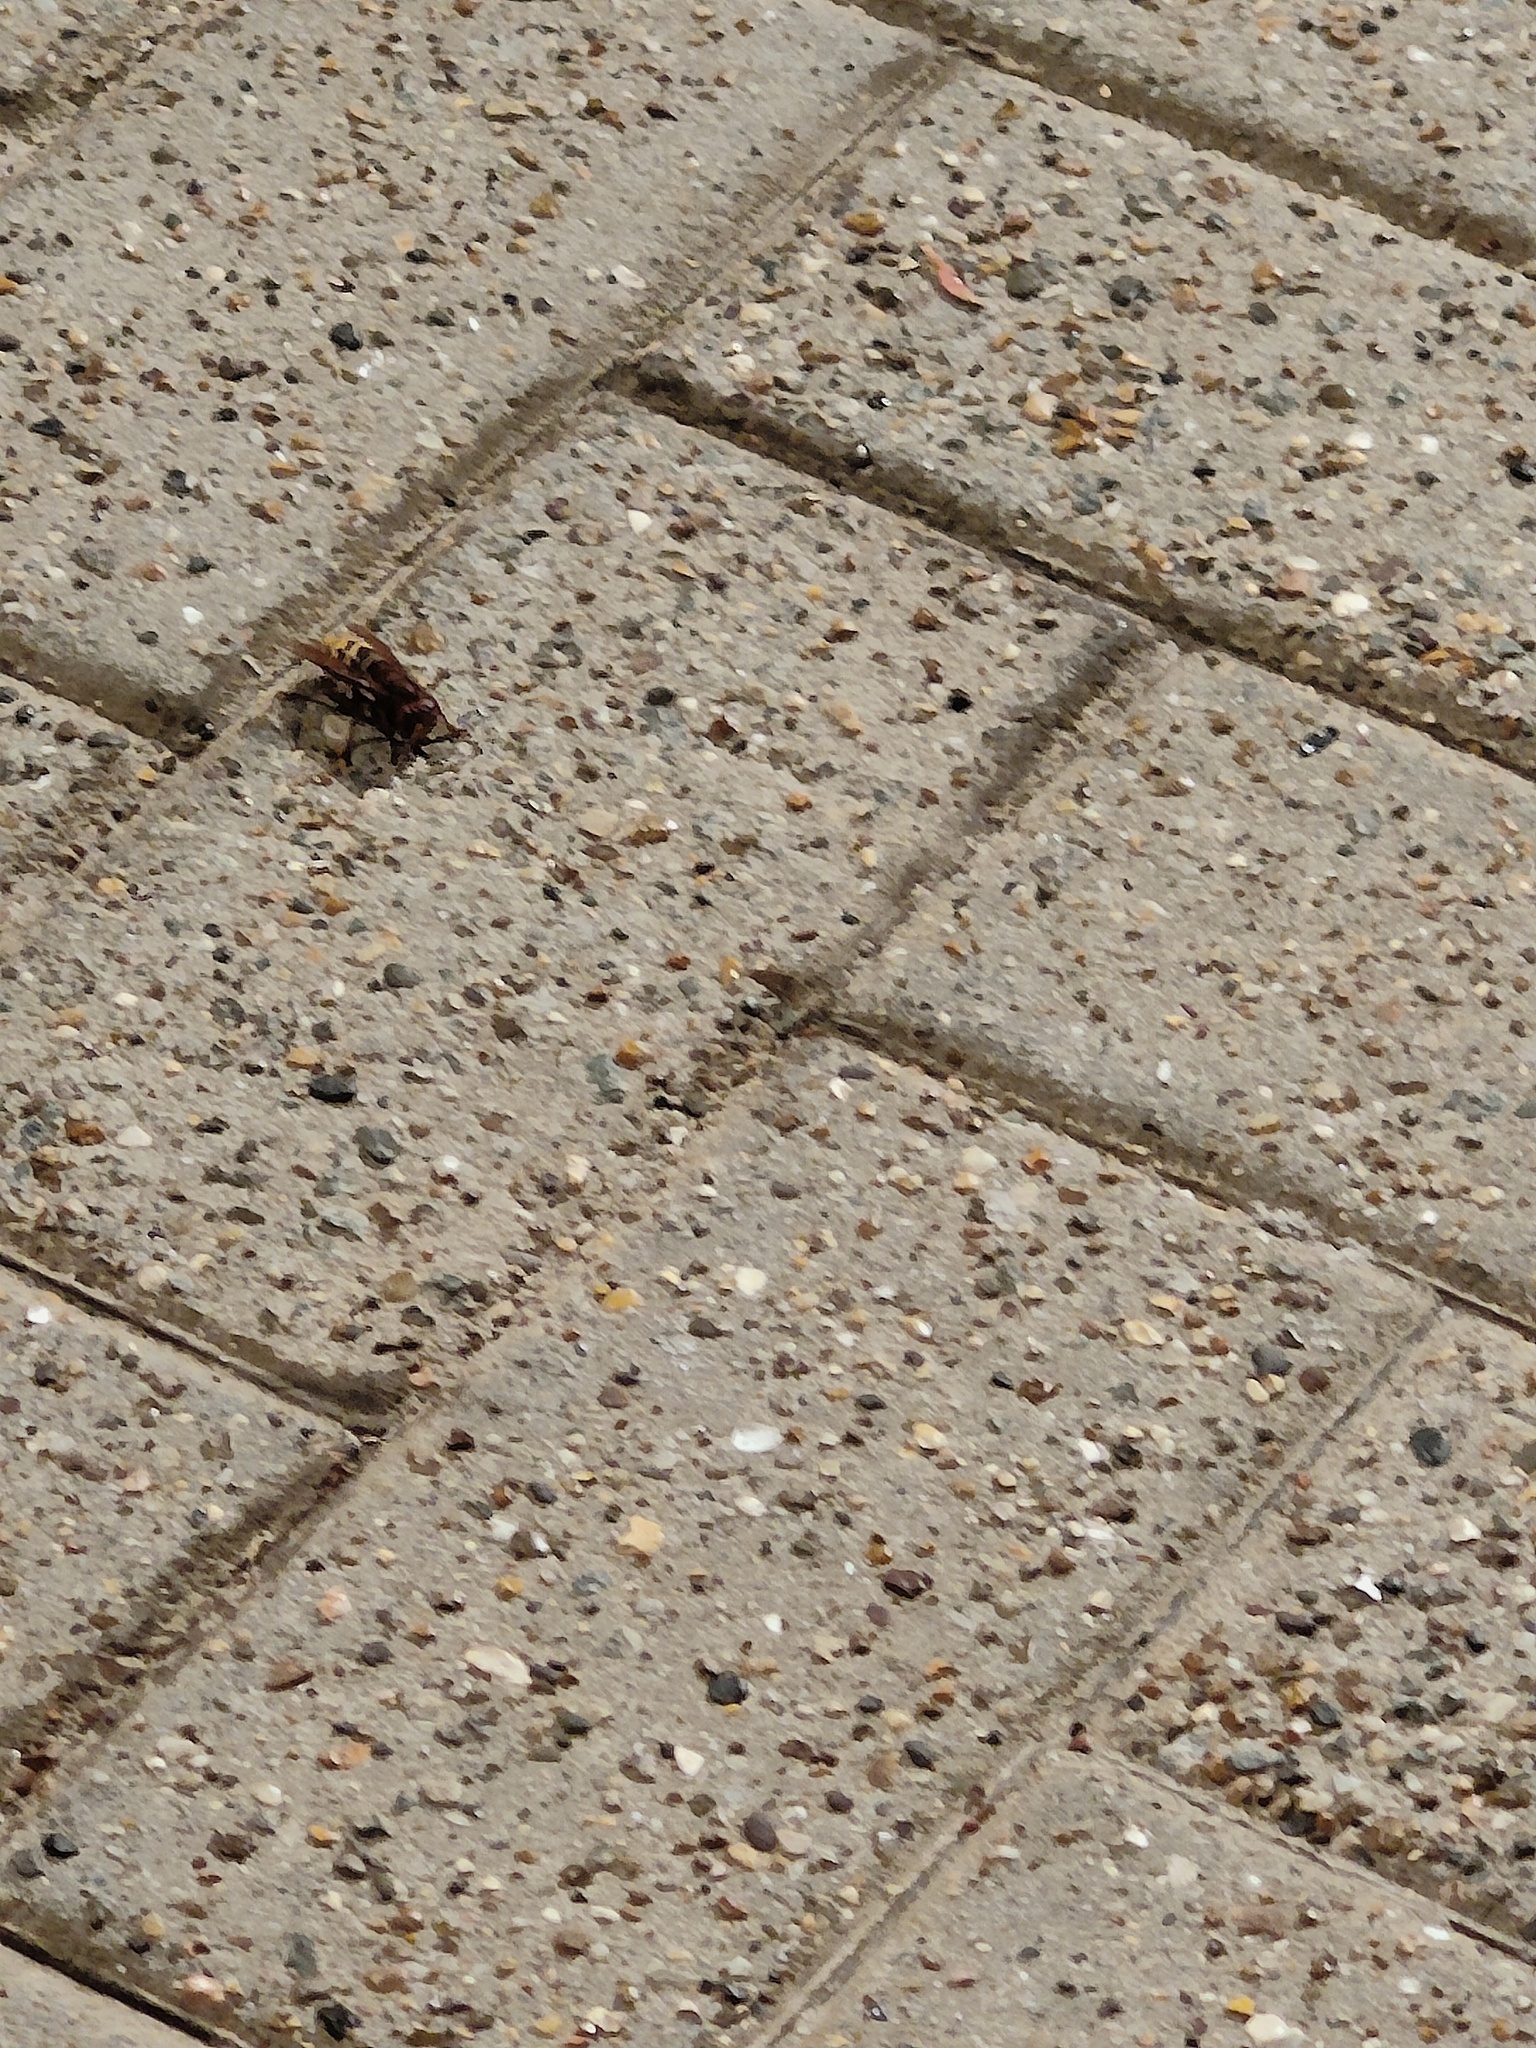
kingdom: Animalia
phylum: Arthropoda
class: Insecta
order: Hymenoptera
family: Vespidae
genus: Vespa
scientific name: Vespa crabro
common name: Hornet
